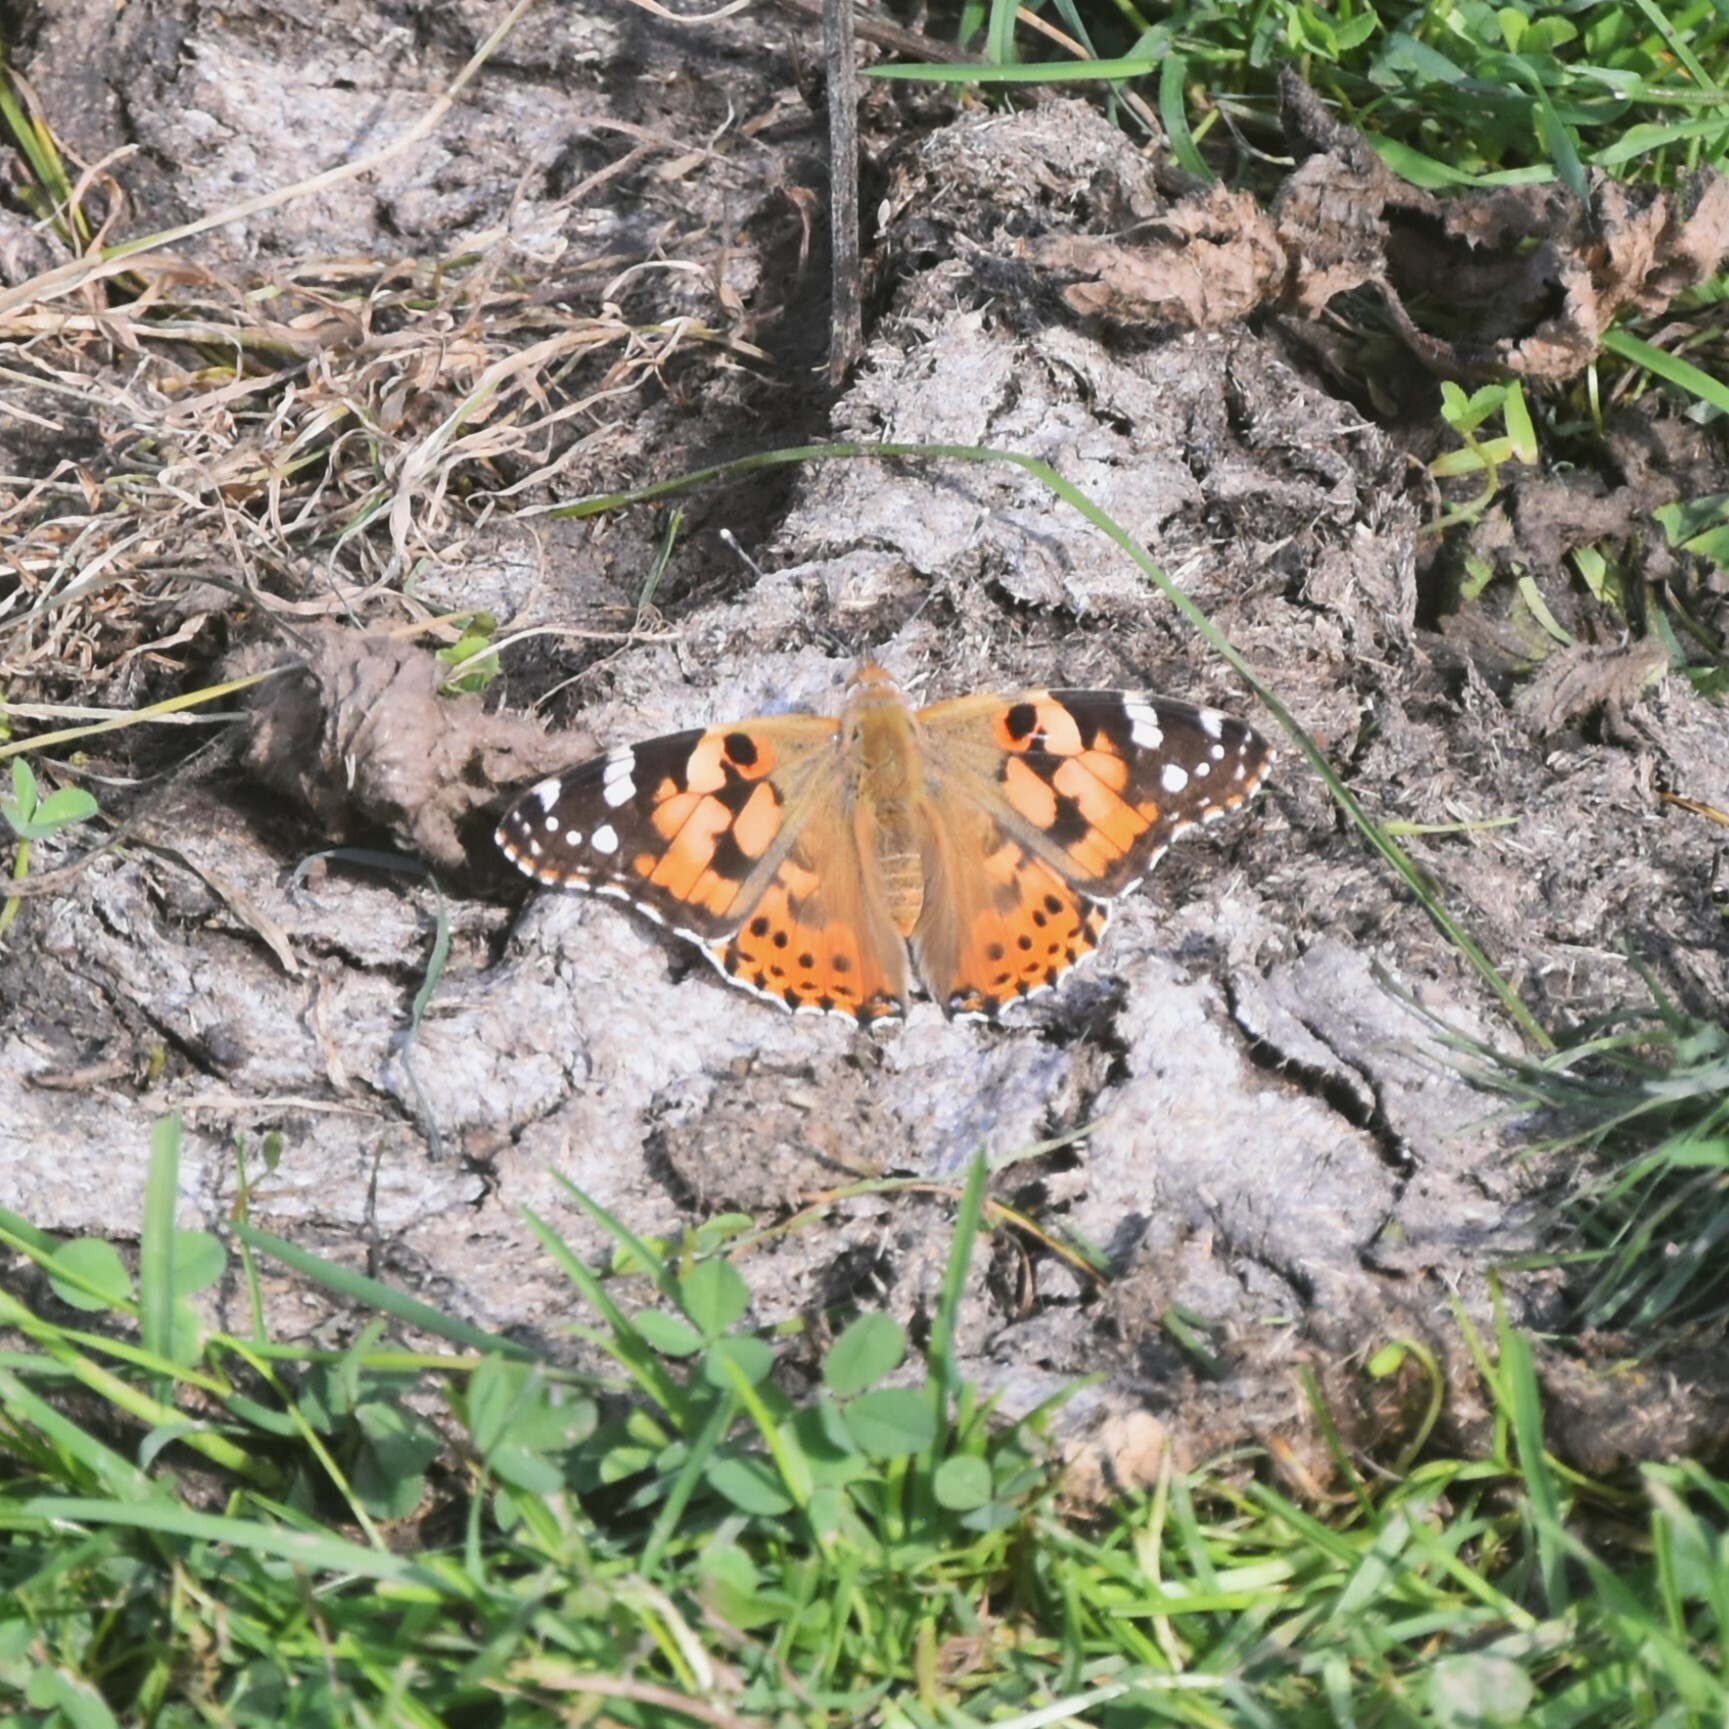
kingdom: Animalia
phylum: Arthropoda
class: Insecta
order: Lepidoptera
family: Nymphalidae
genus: Vanessa
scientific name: Vanessa cardui
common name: Painted lady
